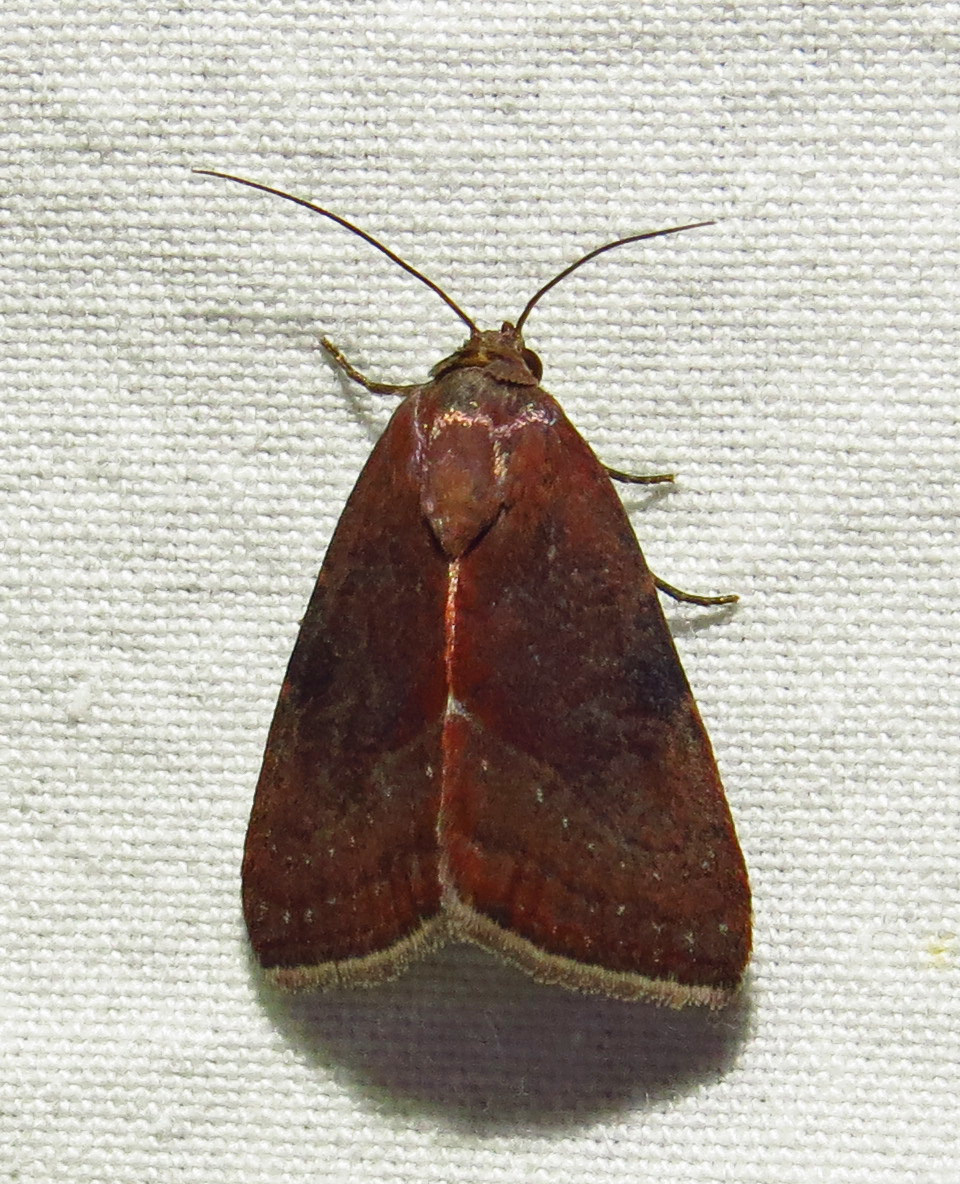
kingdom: Animalia
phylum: Arthropoda
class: Insecta
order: Lepidoptera
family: Noctuidae
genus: Galgula
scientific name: Galgula partita
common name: Wedgeling
